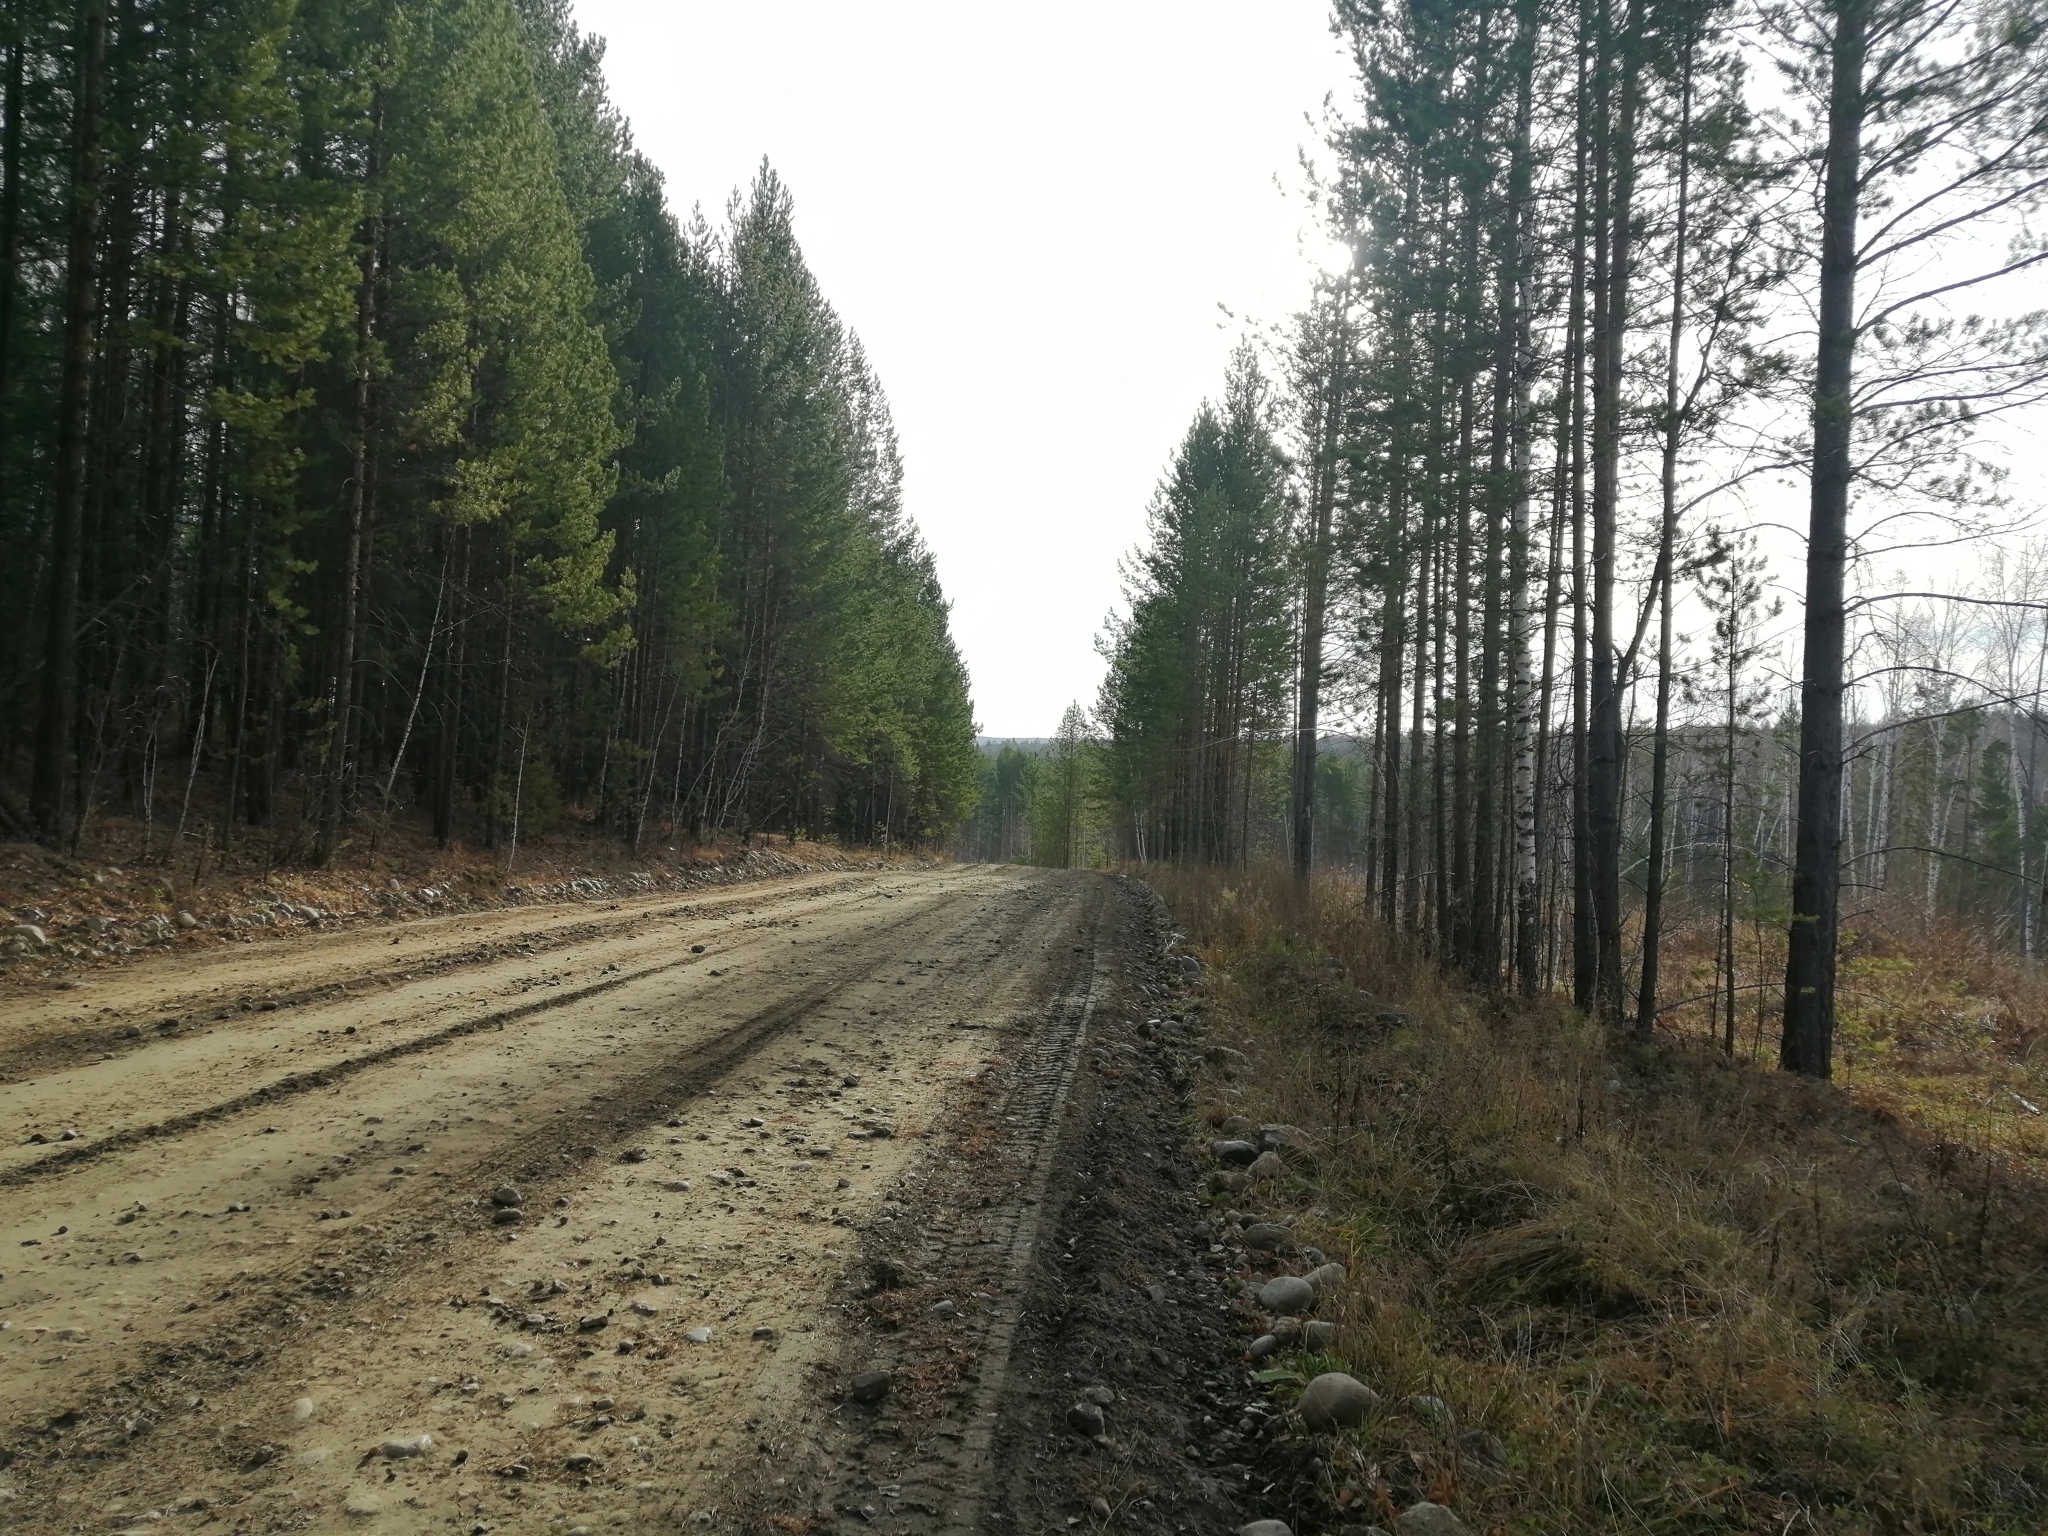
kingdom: Plantae
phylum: Tracheophyta
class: Pinopsida
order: Pinales
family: Pinaceae
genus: Pinus
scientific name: Pinus sylvestris
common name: Scots pine
